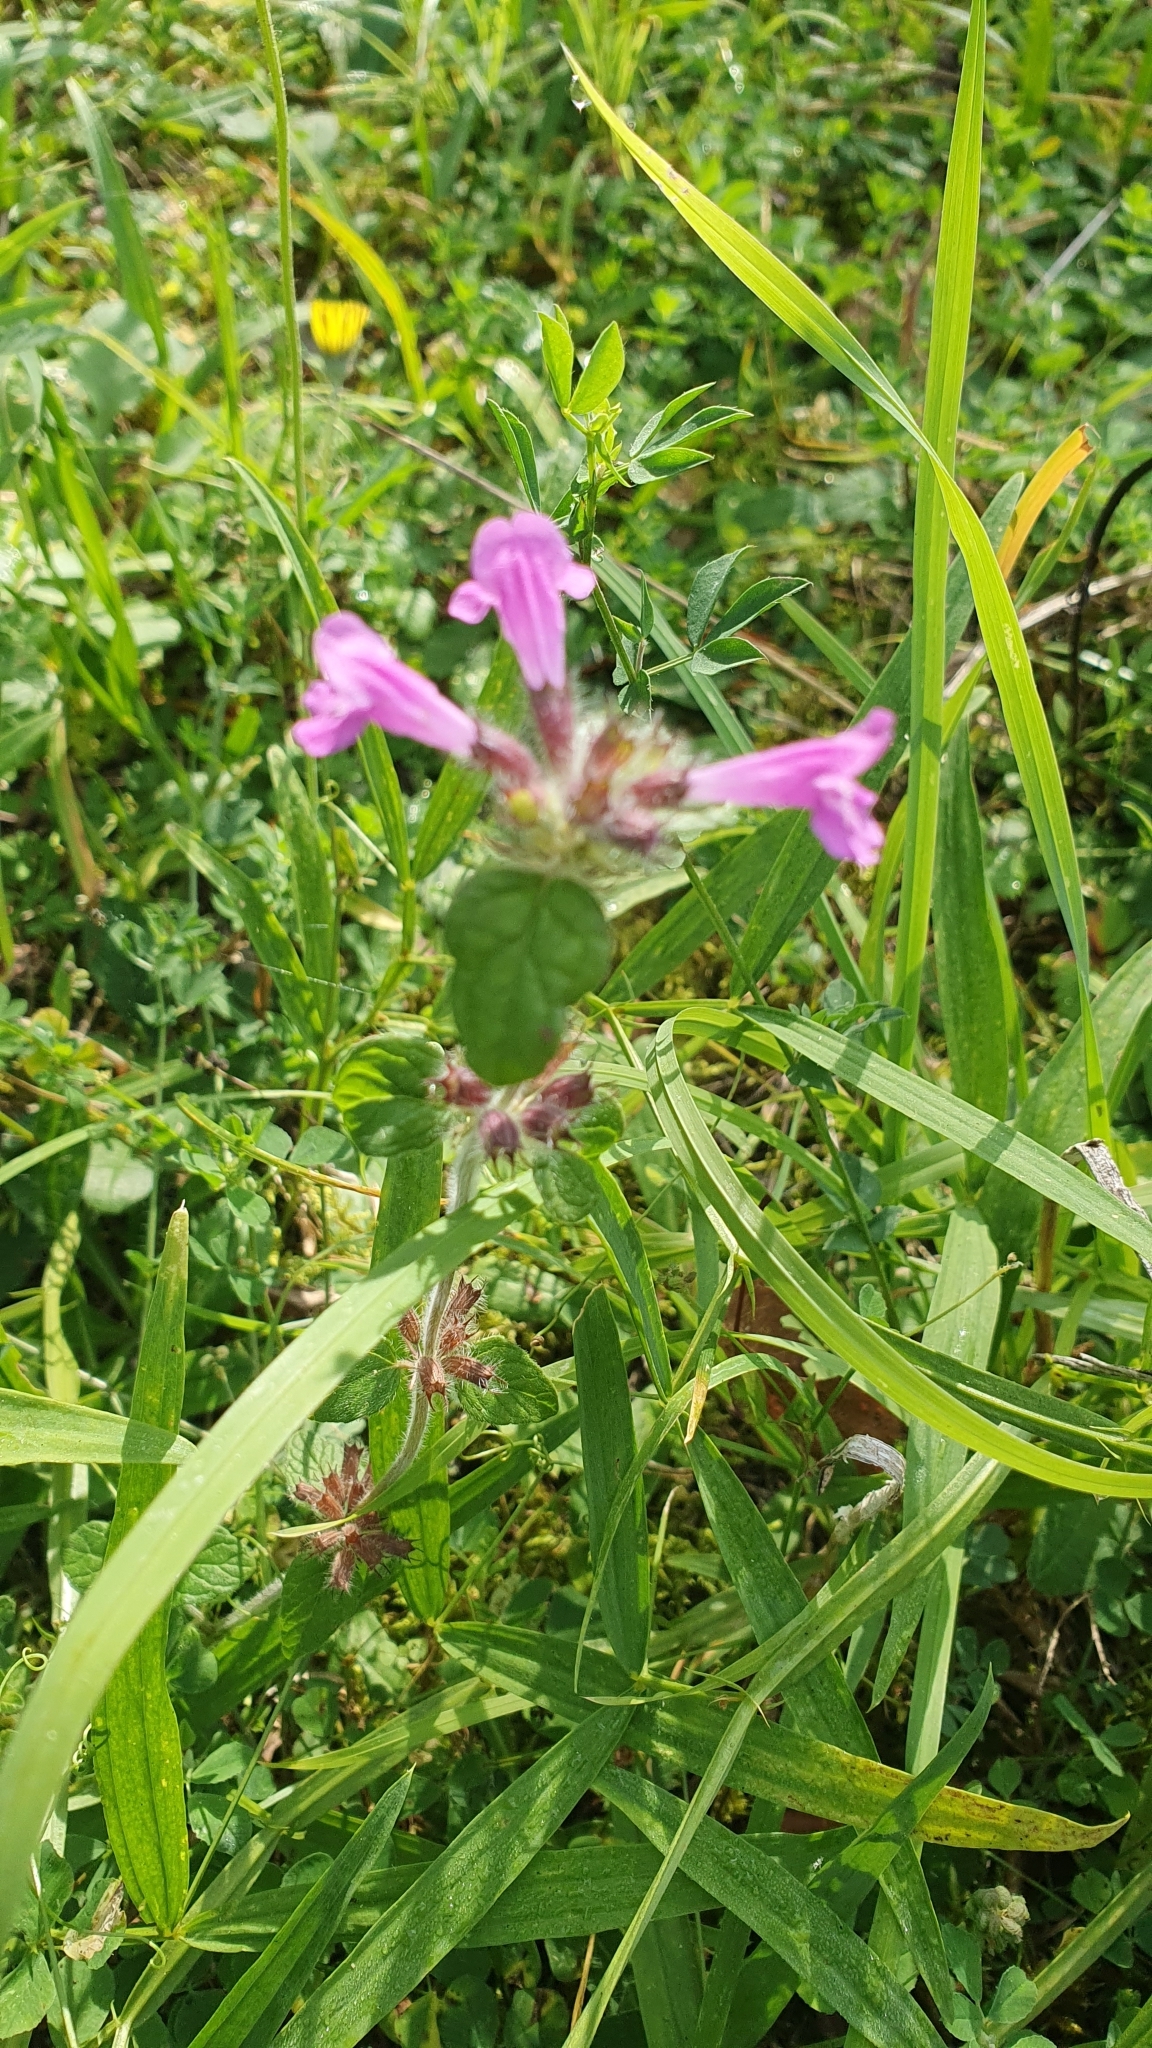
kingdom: Plantae
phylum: Tracheophyta
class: Magnoliopsida
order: Lamiales
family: Lamiaceae
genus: Clinopodium
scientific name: Clinopodium vulgare
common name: Wild basil
